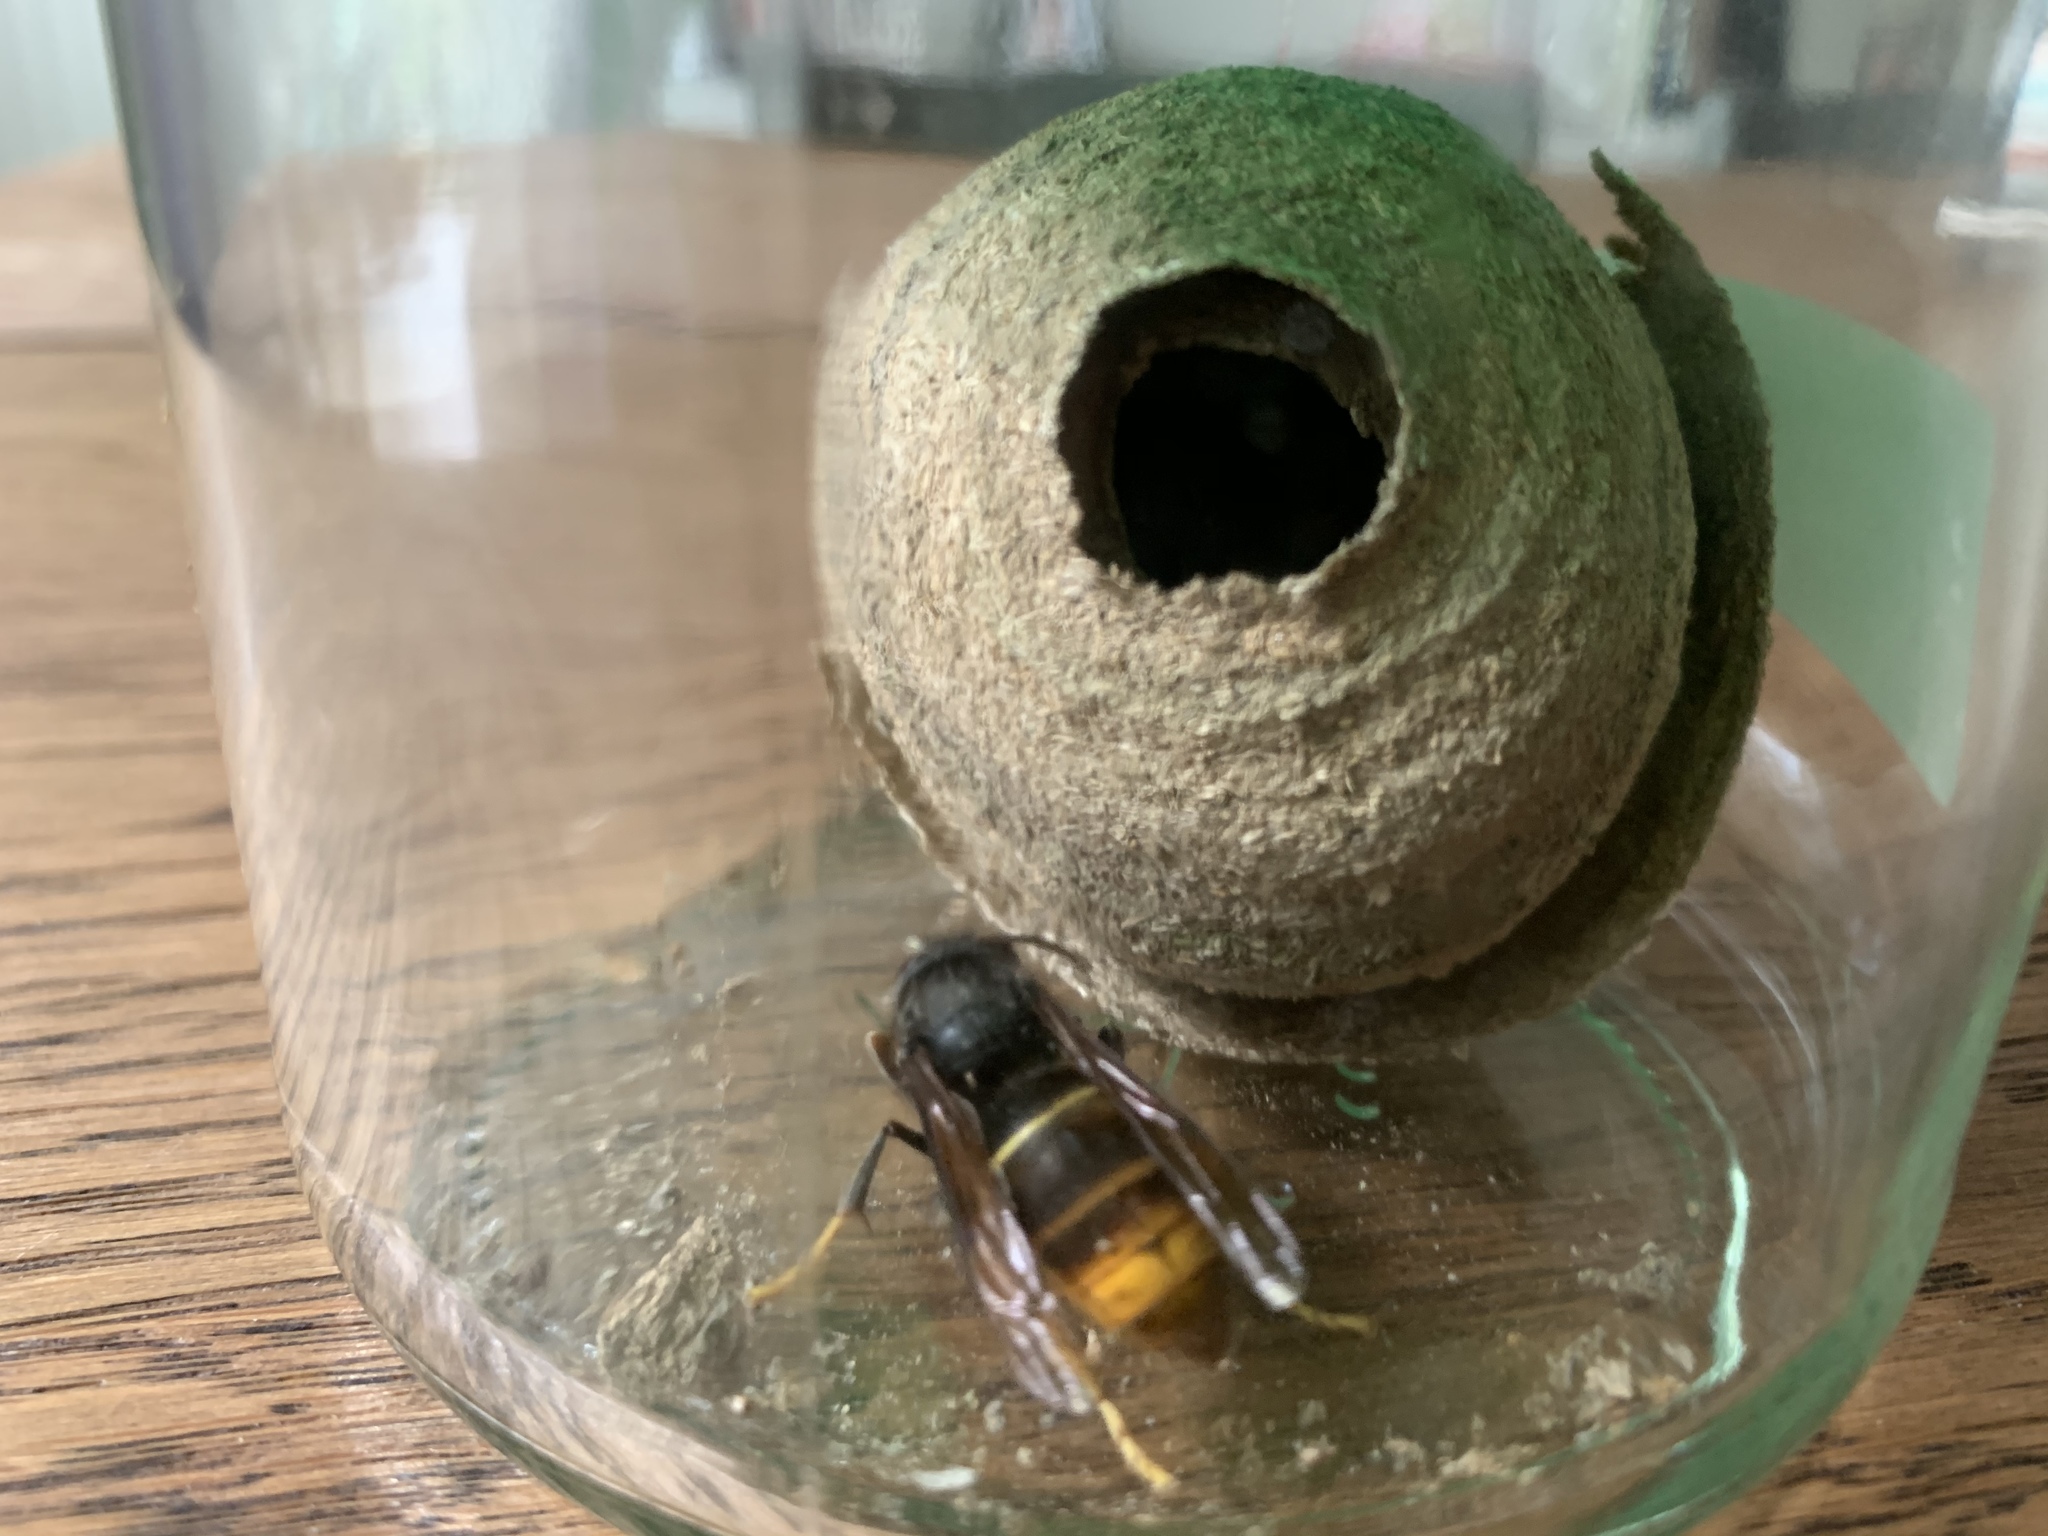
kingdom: Animalia
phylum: Arthropoda
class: Insecta
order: Hymenoptera
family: Vespidae
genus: Vespa
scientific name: Vespa velutina
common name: Asian hornet
